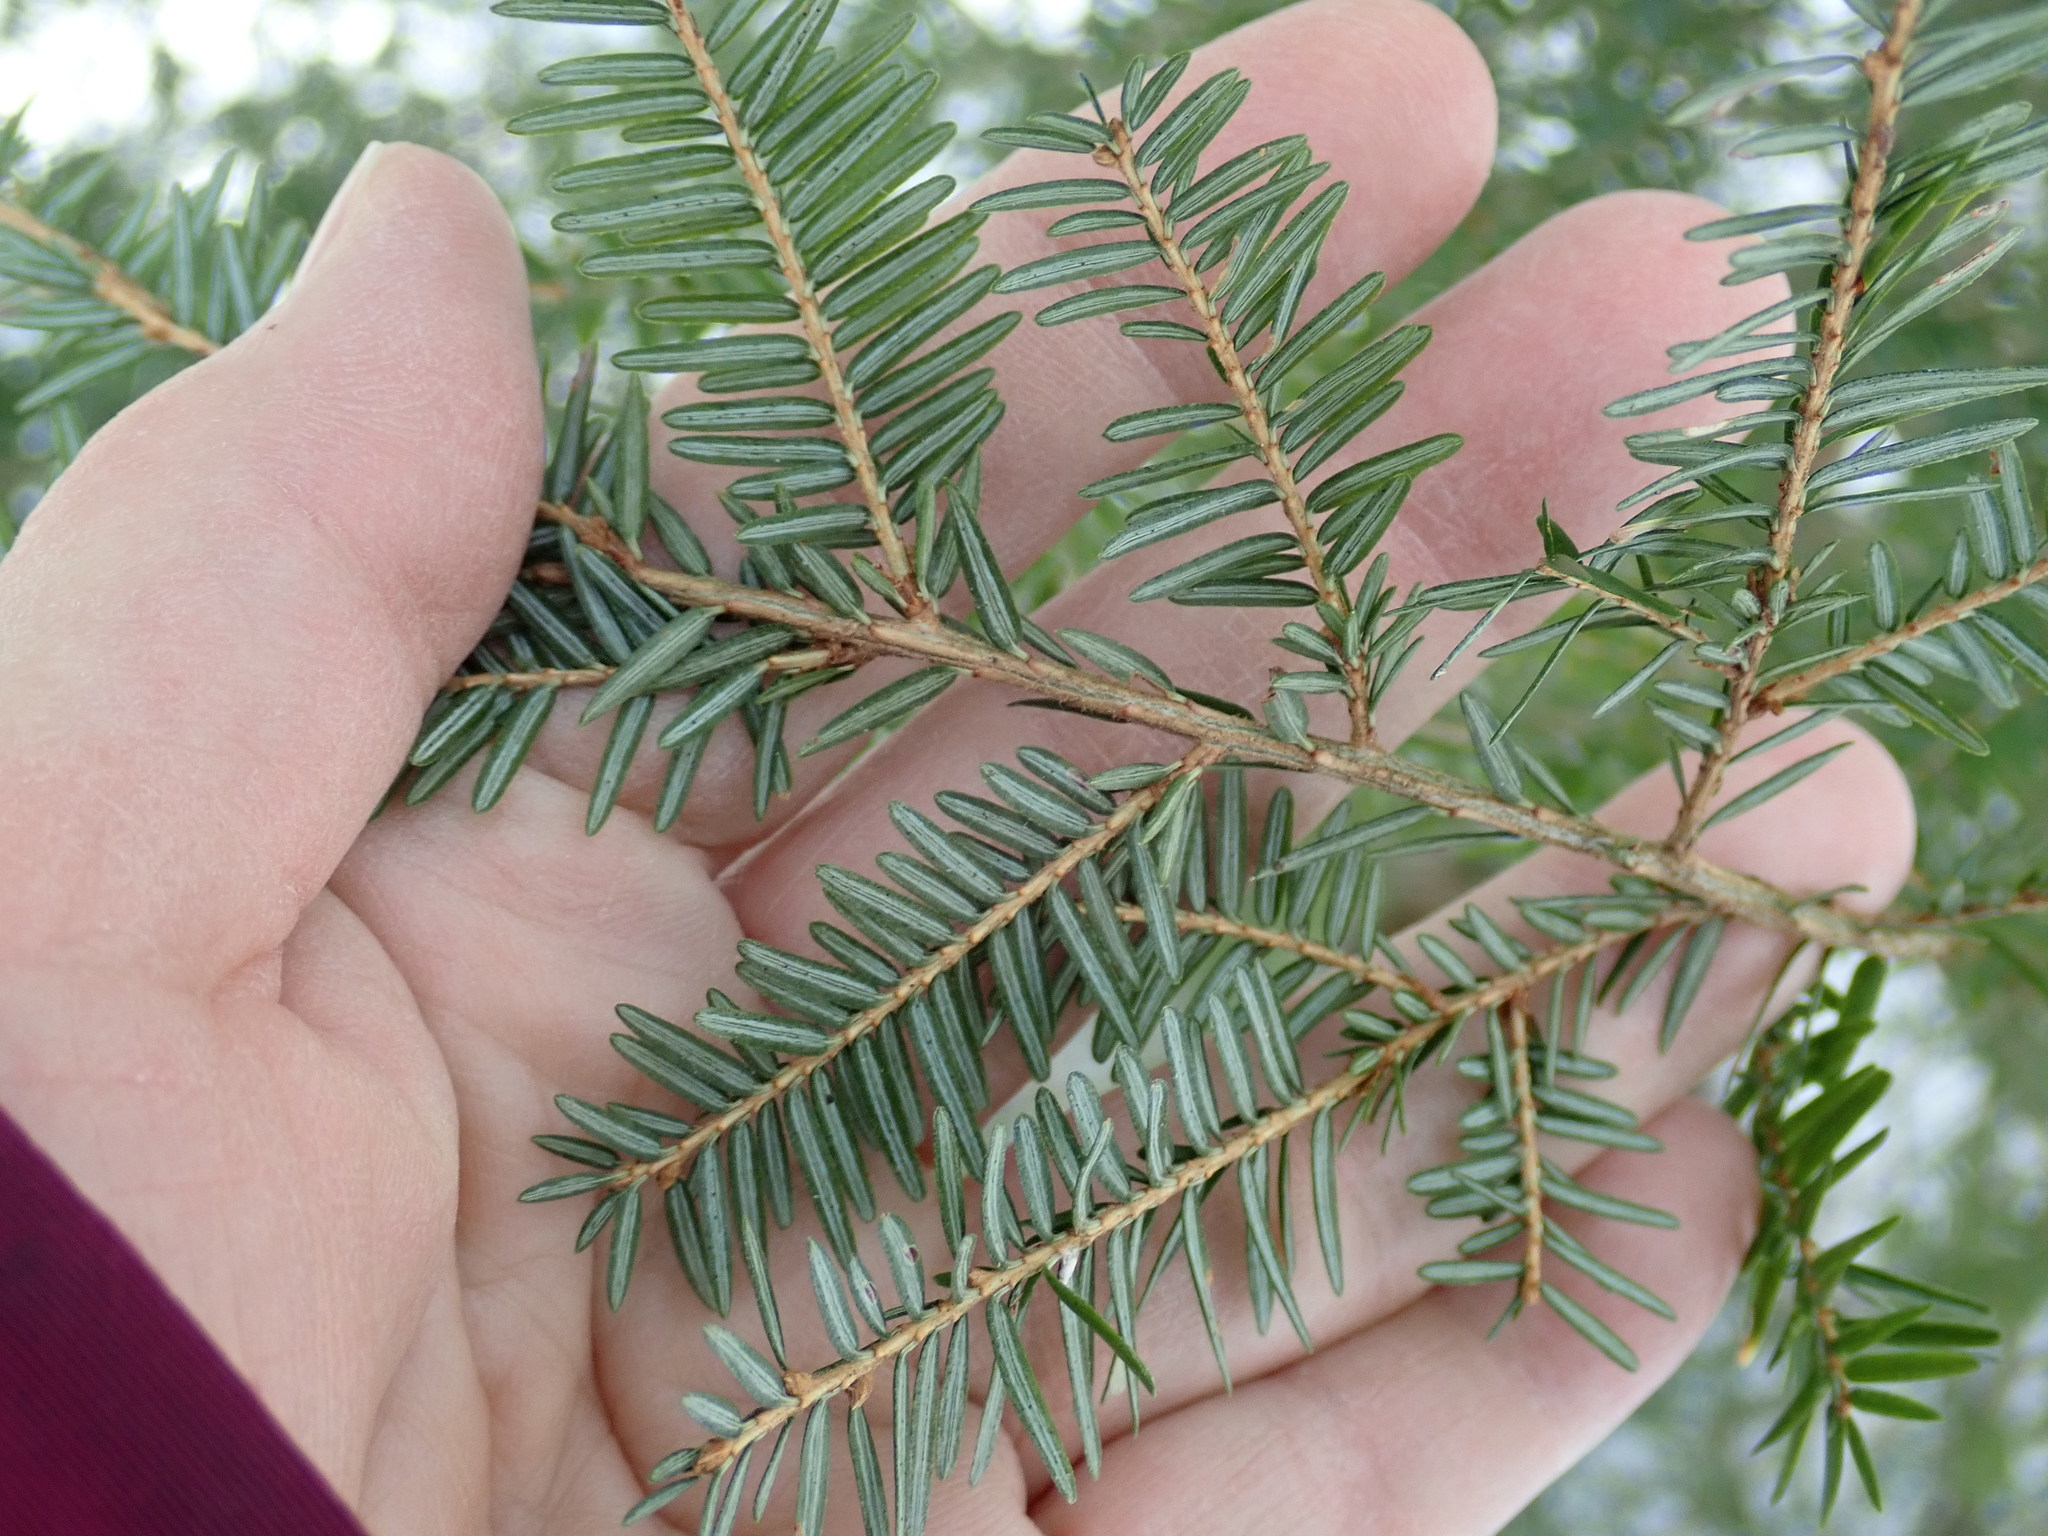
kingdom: Plantae
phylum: Tracheophyta
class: Pinopsida
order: Pinales
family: Pinaceae
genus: Tsuga
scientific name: Tsuga canadensis
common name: Eastern hemlock
